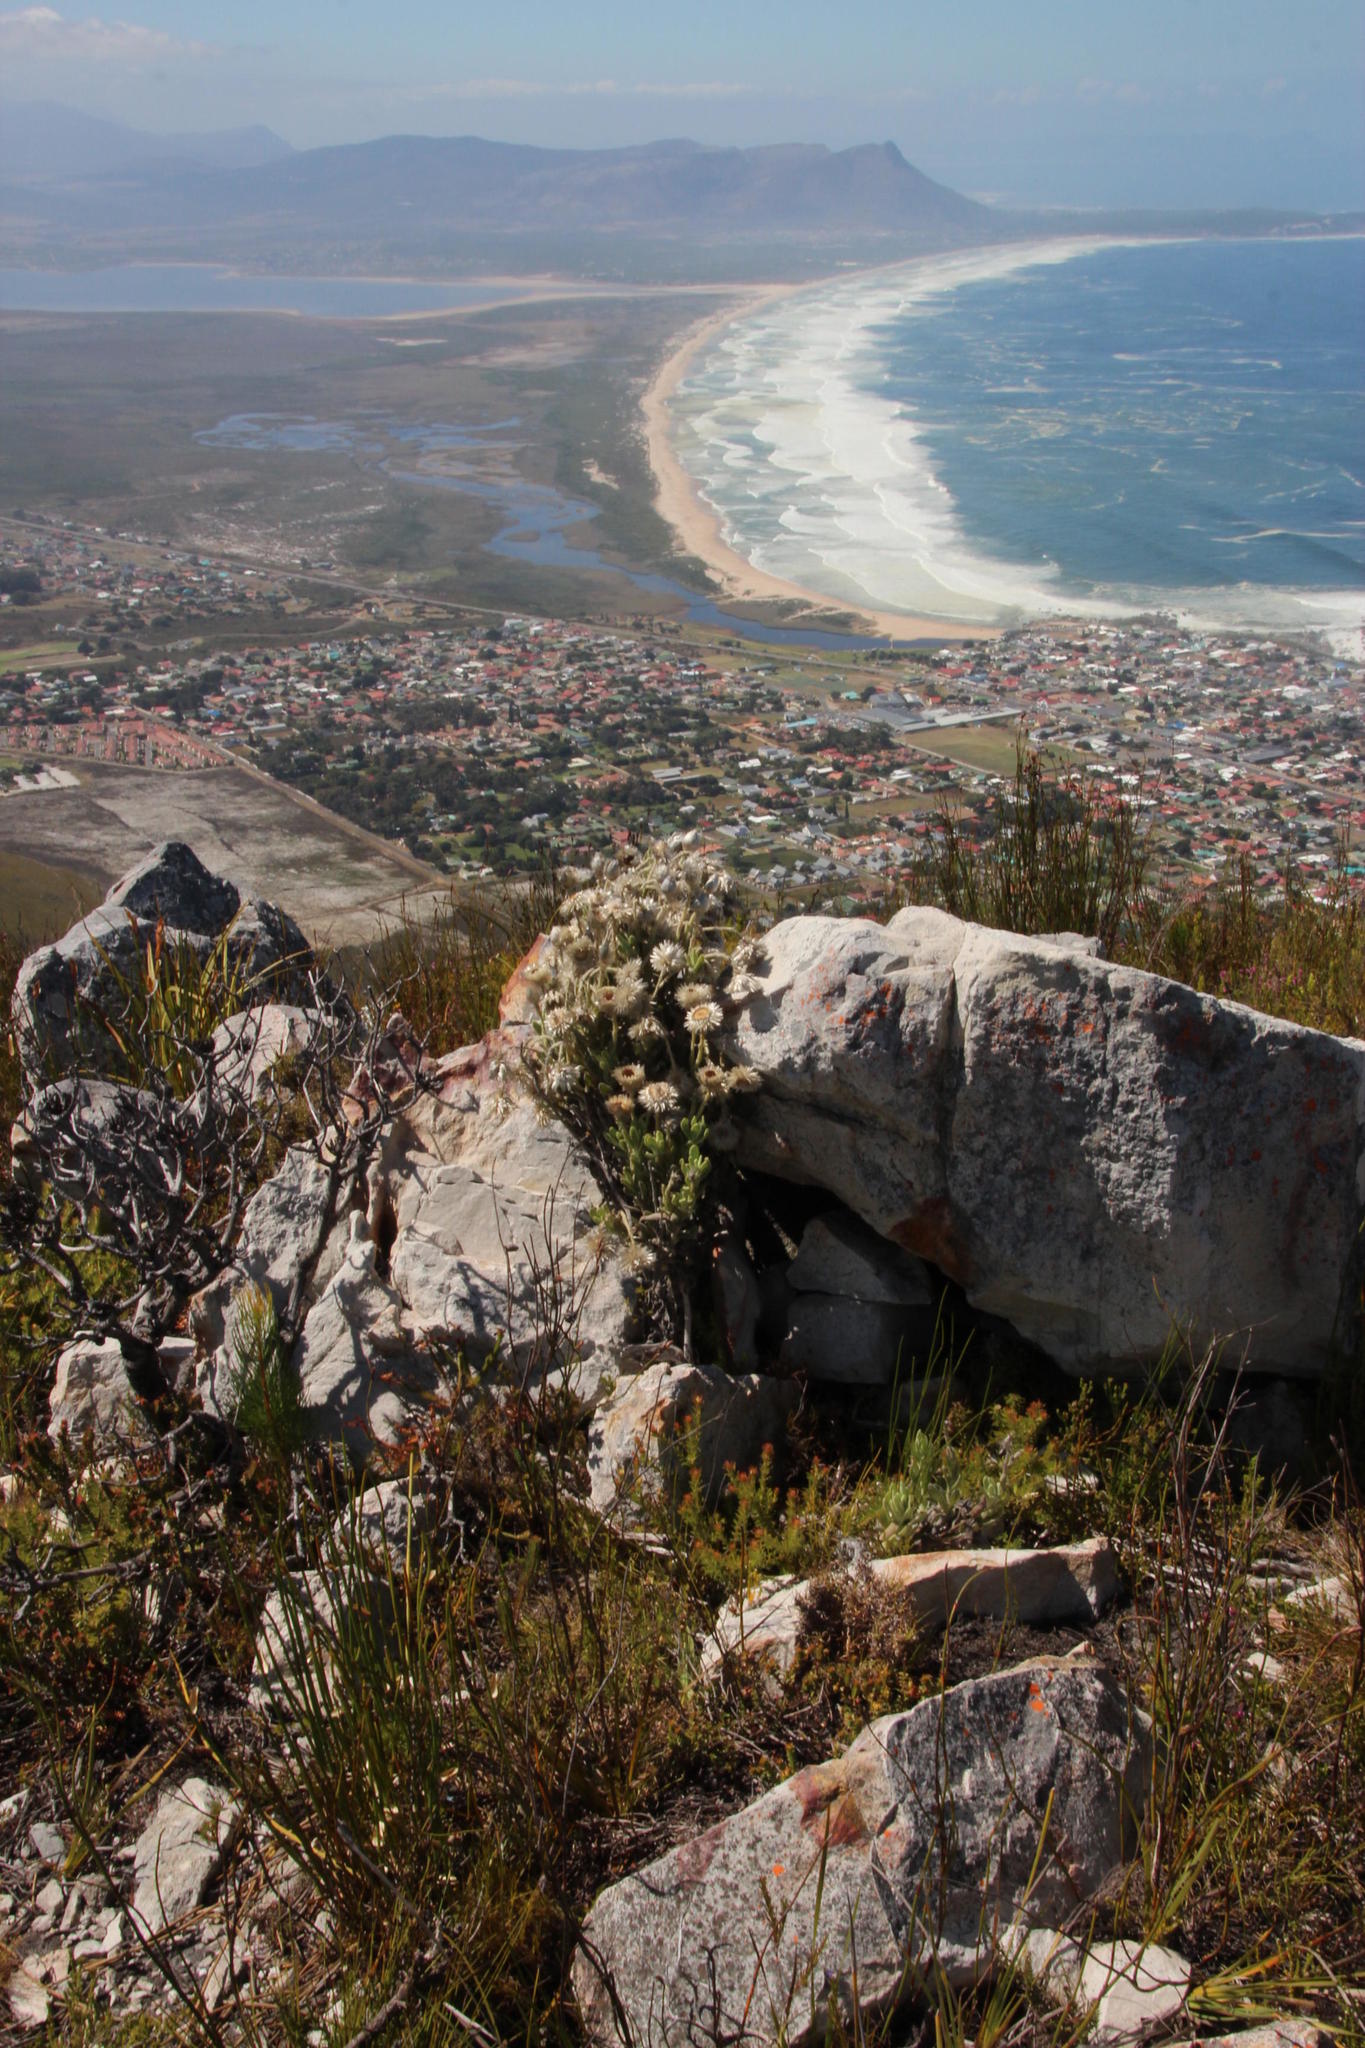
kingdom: Plantae
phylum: Tracheophyta
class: Magnoliopsida
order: Asterales
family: Asteraceae
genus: Syncarpha
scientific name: Syncarpha vestita
